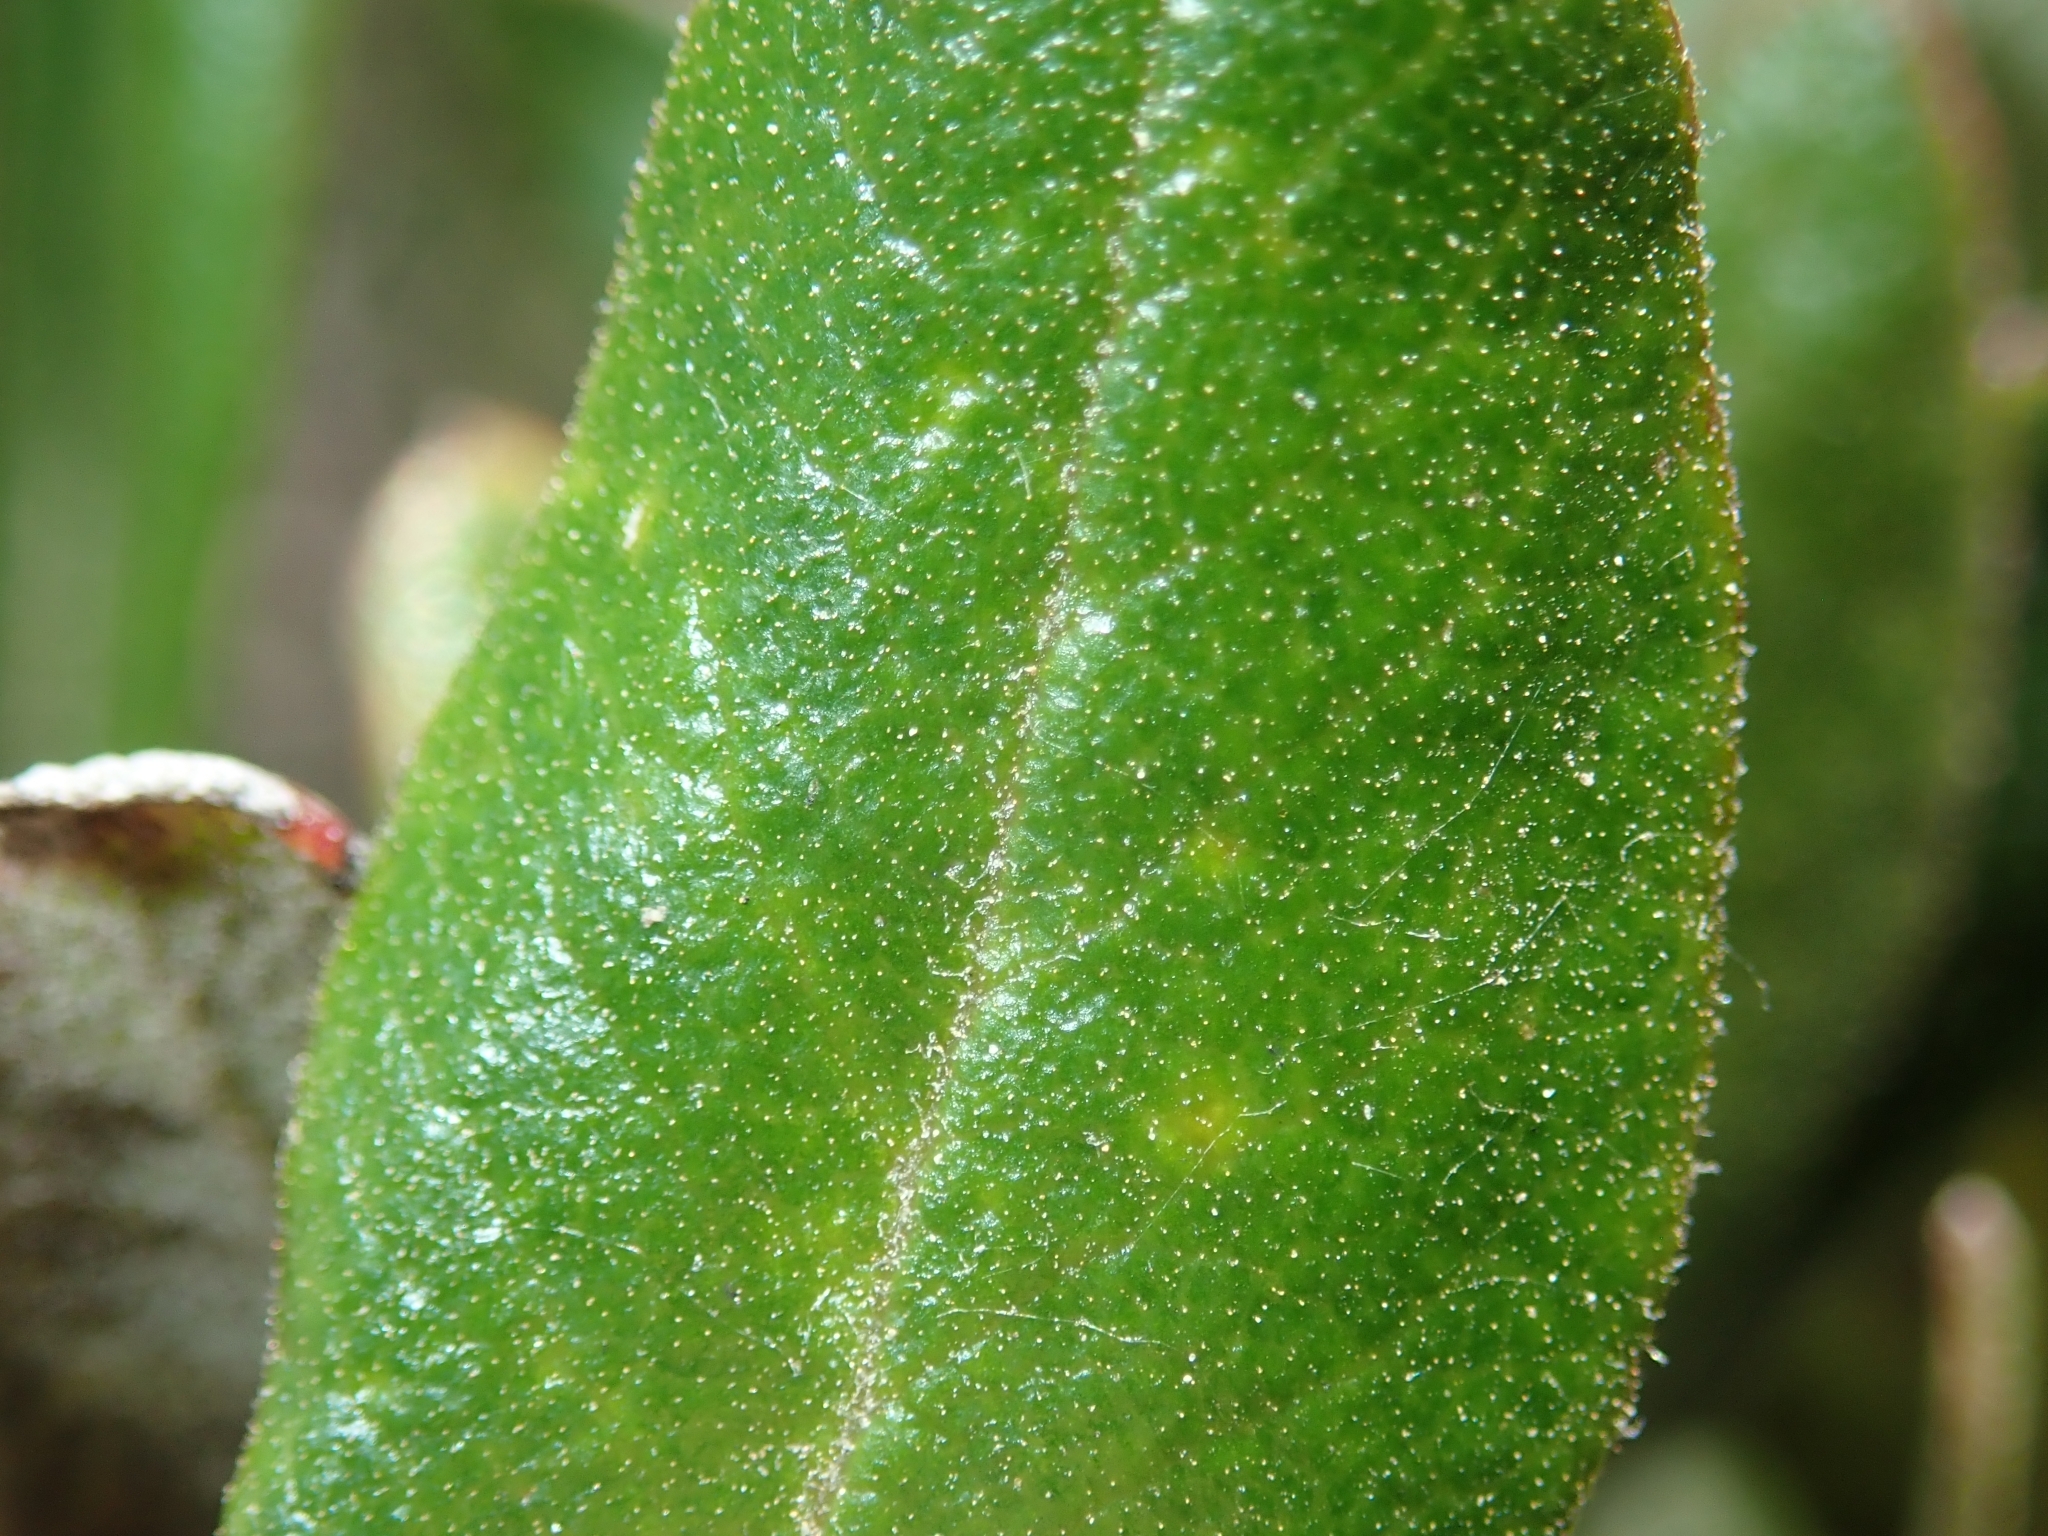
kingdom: Plantae
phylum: Tracheophyta
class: Magnoliopsida
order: Ericales
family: Ericaceae
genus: Arctostaphylos
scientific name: Arctostaphylos bicolor
